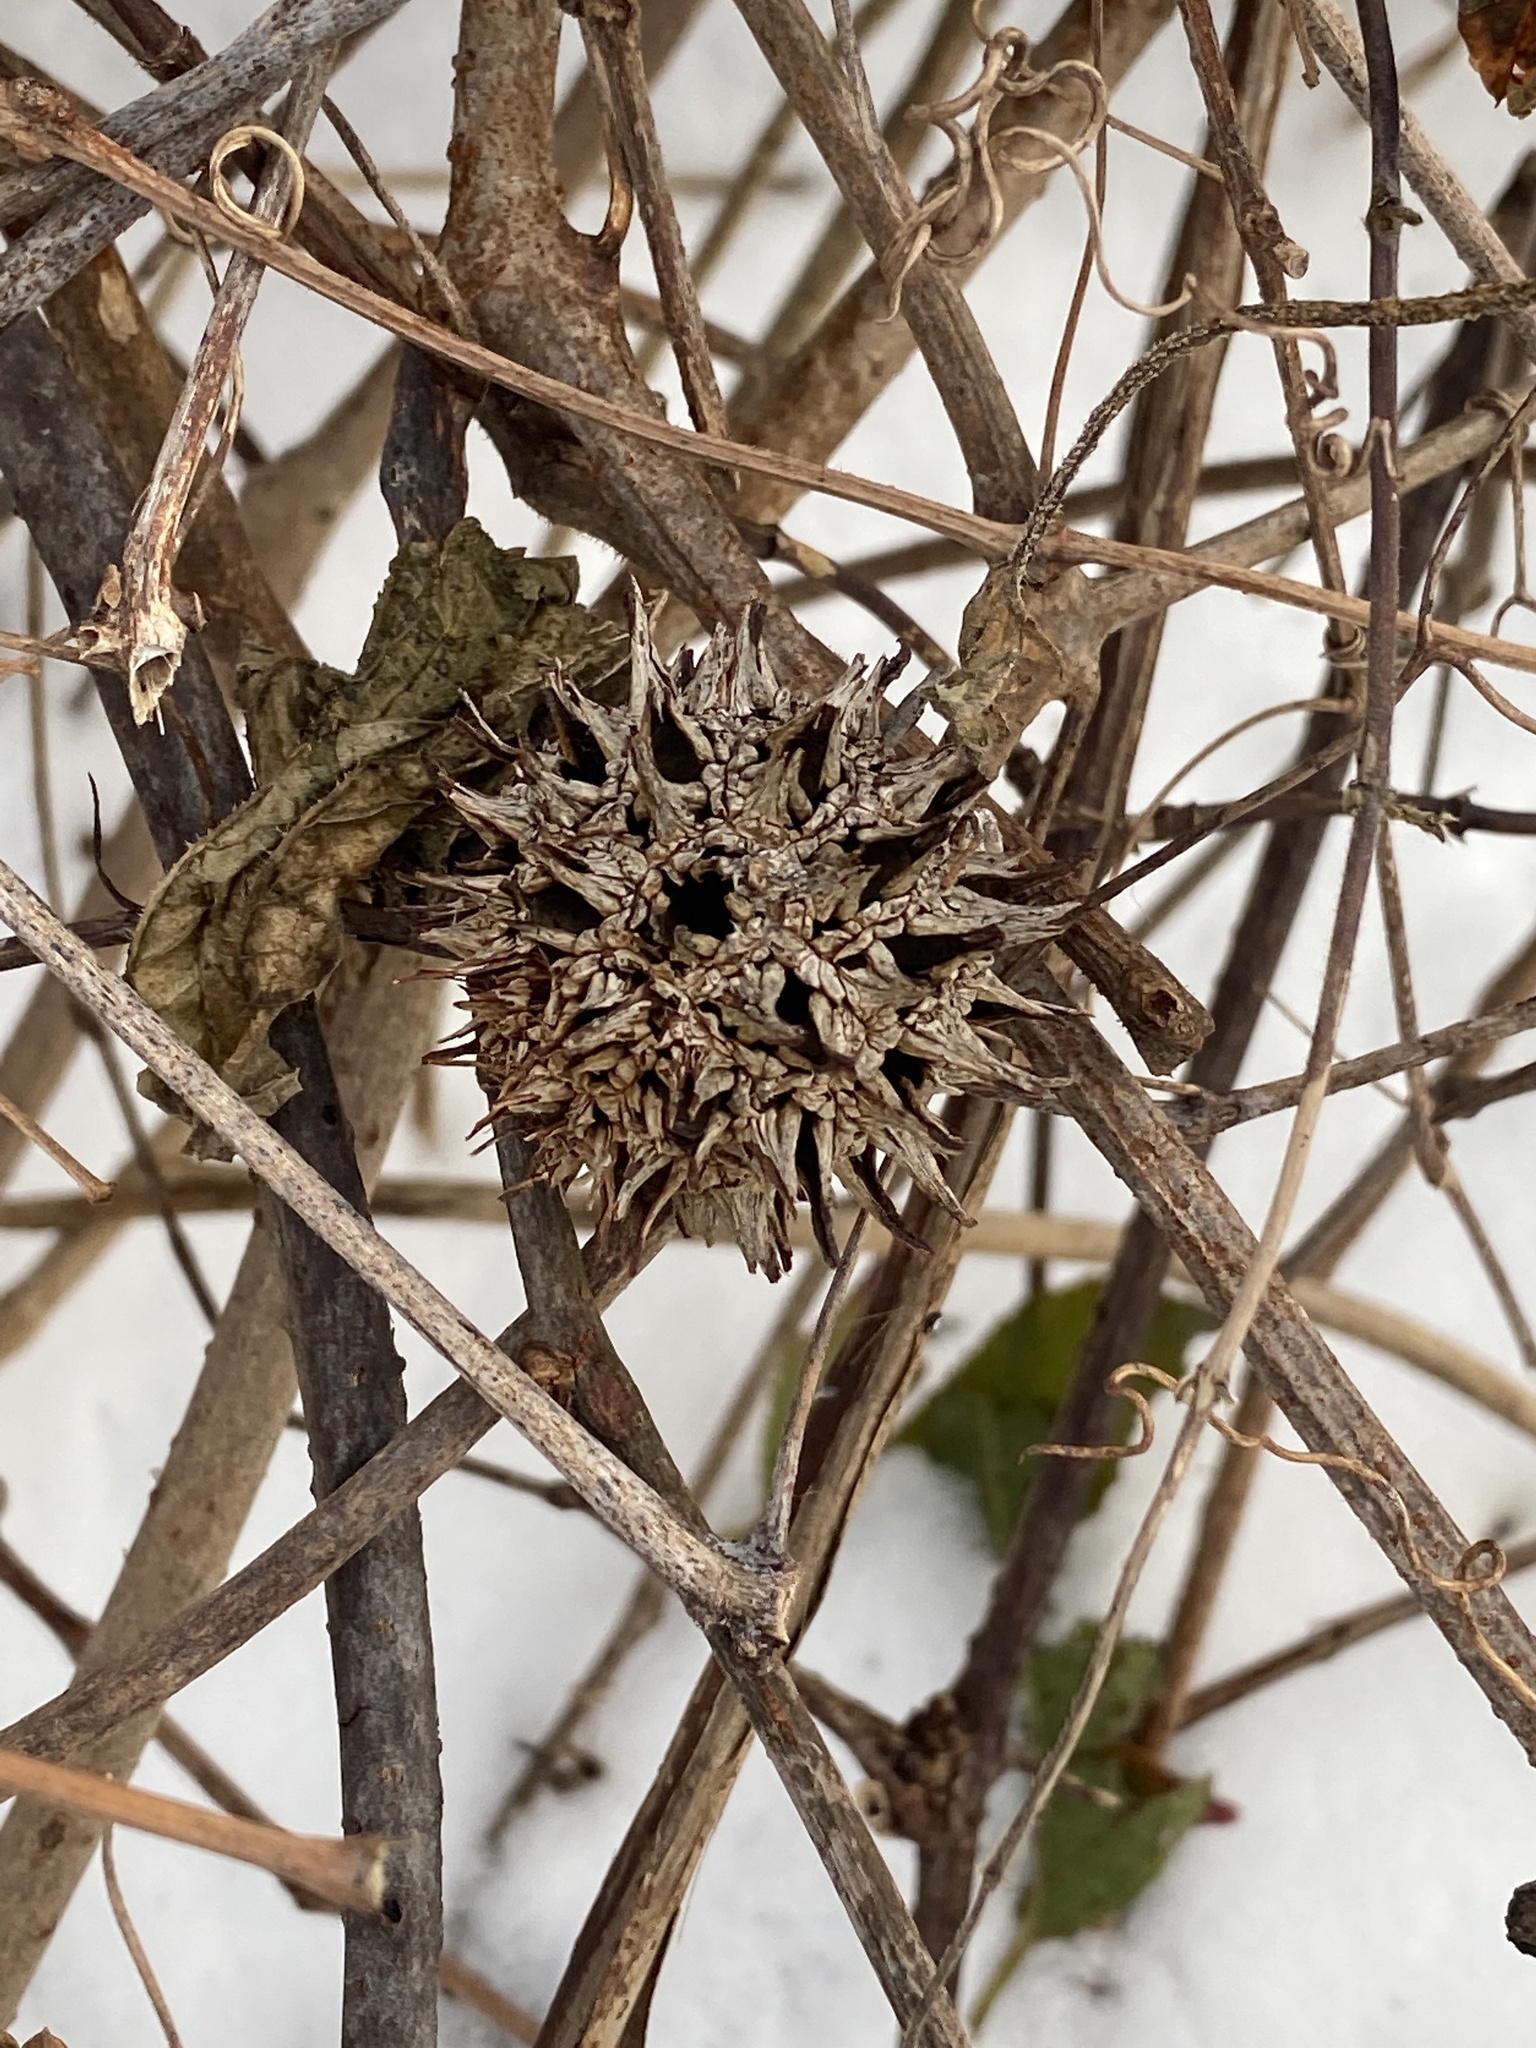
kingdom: Plantae
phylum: Tracheophyta
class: Magnoliopsida
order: Saxifragales
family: Altingiaceae
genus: Liquidambar
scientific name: Liquidambar styraciflua
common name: Sweet gum
